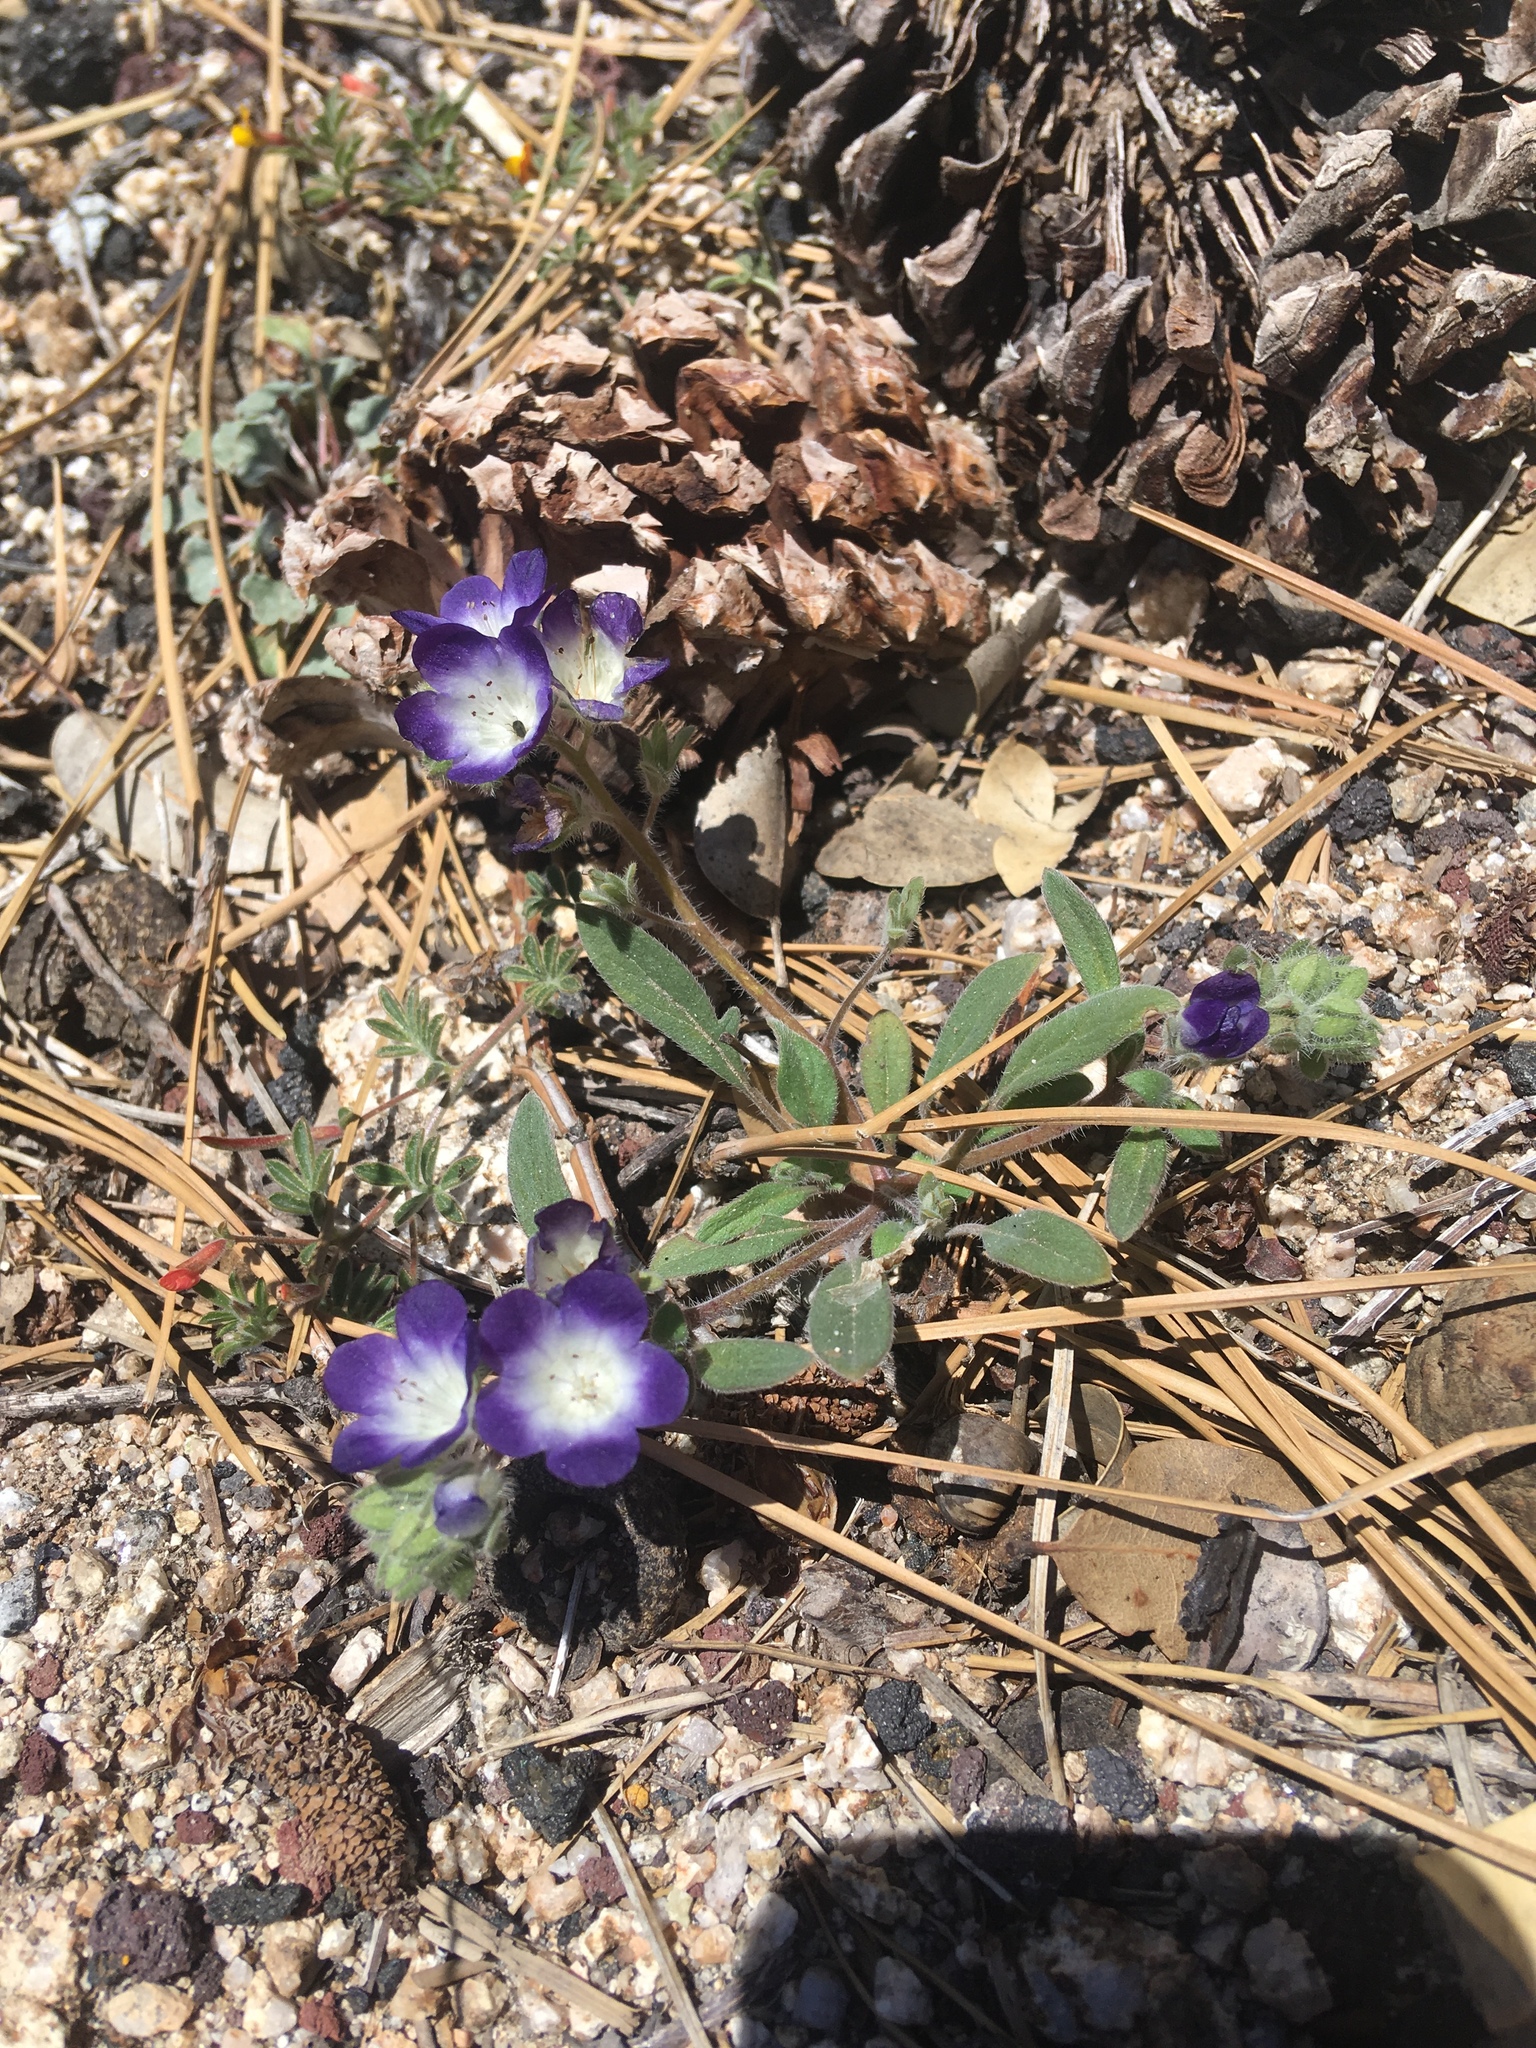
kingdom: Plantae
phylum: Tracheophyta
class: Magnoliopsida
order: Boraginales
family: Hydrophyllaceae
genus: Phacelia
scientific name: Phacelia davidsonii
